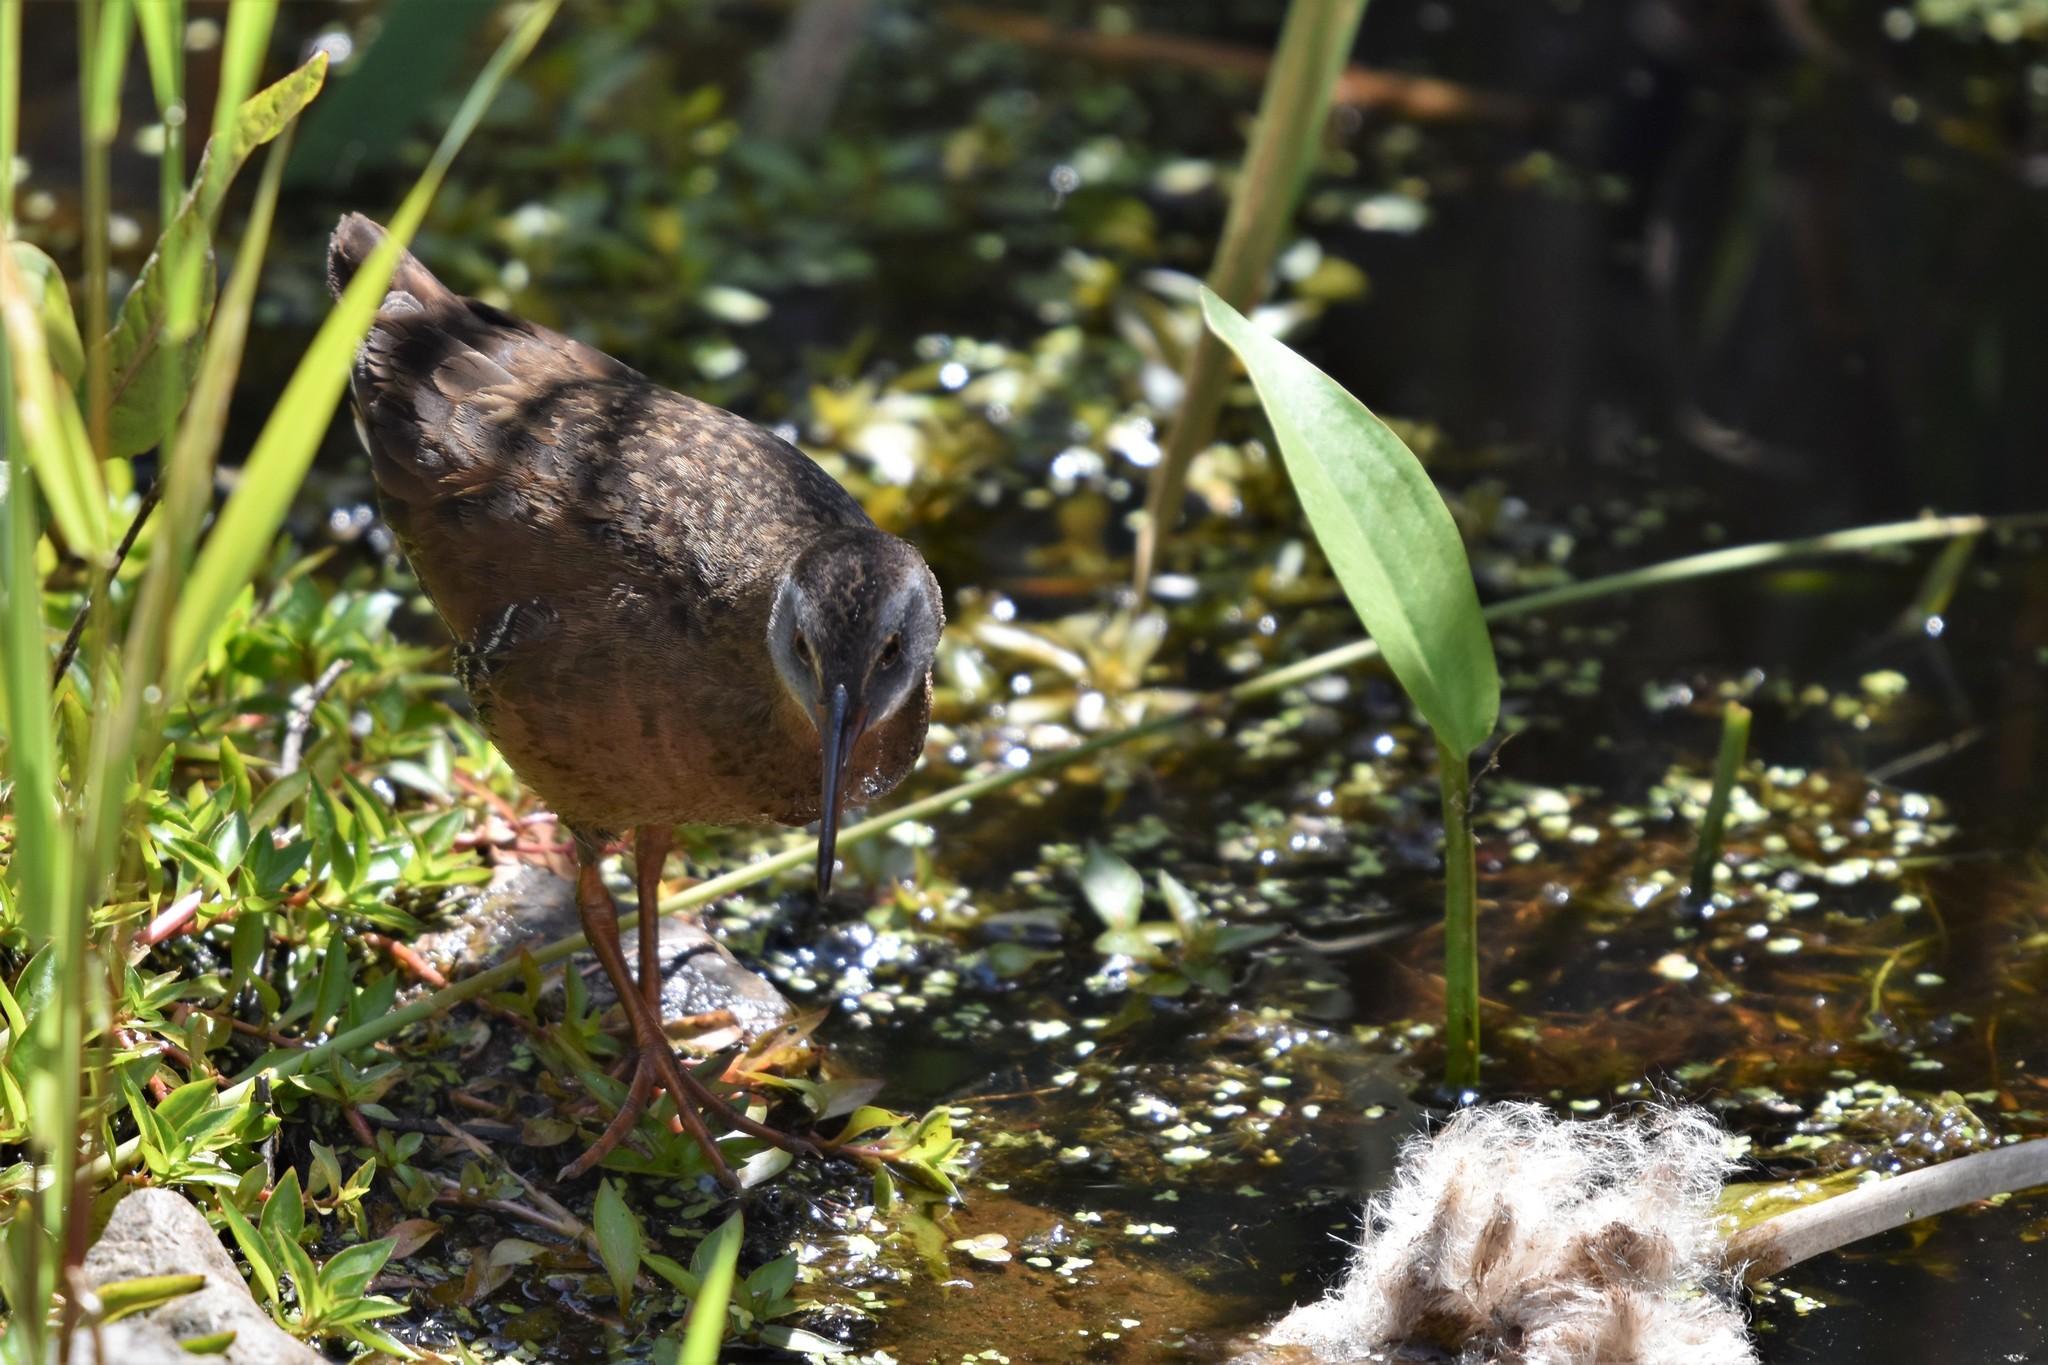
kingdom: Animalia
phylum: Chordata
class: Aves
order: Gruiformes
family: Rallidae
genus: Rallus
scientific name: Rallus limicola
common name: Virginia rail
